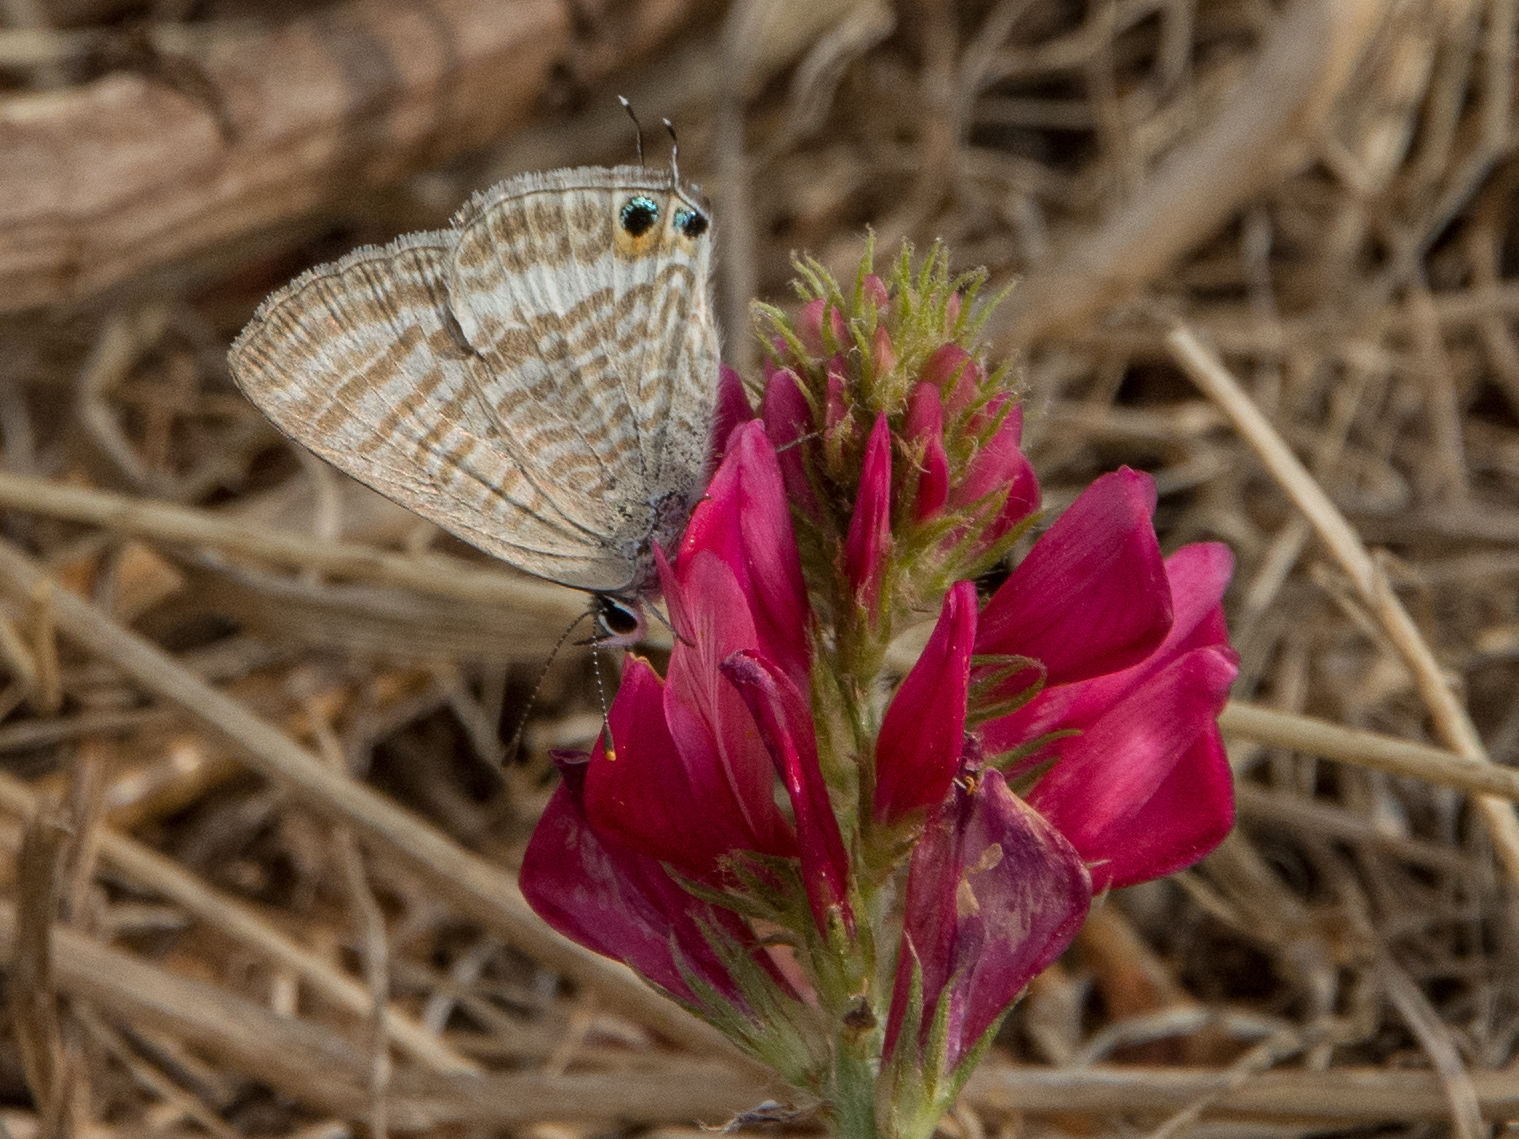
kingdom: Animalia
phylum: Arthropoda
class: Insecta
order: Lepidoptera
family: Lycaenidae
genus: Lampides
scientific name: Lampides boeticus
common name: Long-tailed blue
